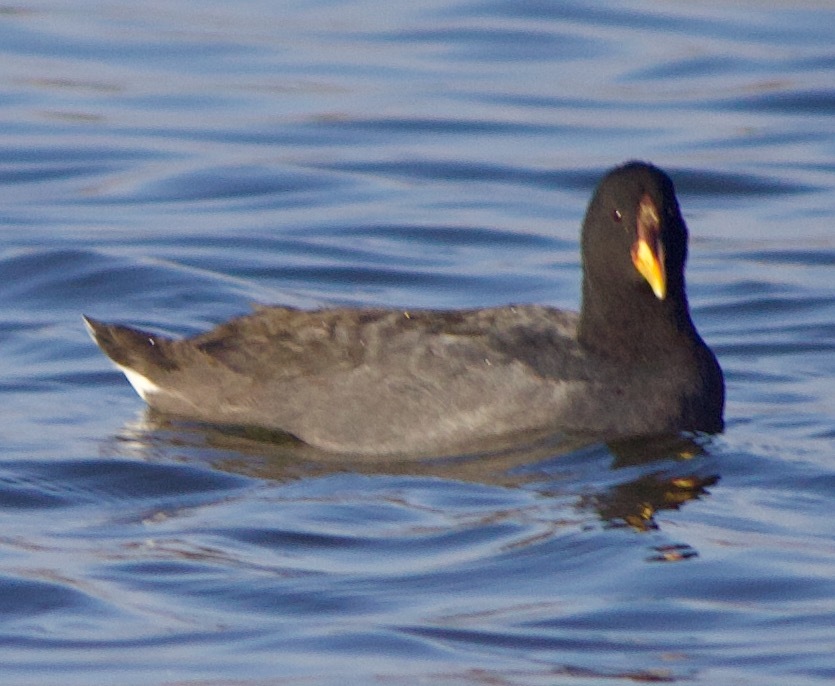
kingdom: Animalia
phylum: Chordata
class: Aves
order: Gruiformes
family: Rallidae
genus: Fulica
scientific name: Fulica rufifrons
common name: Red-fronted coot
